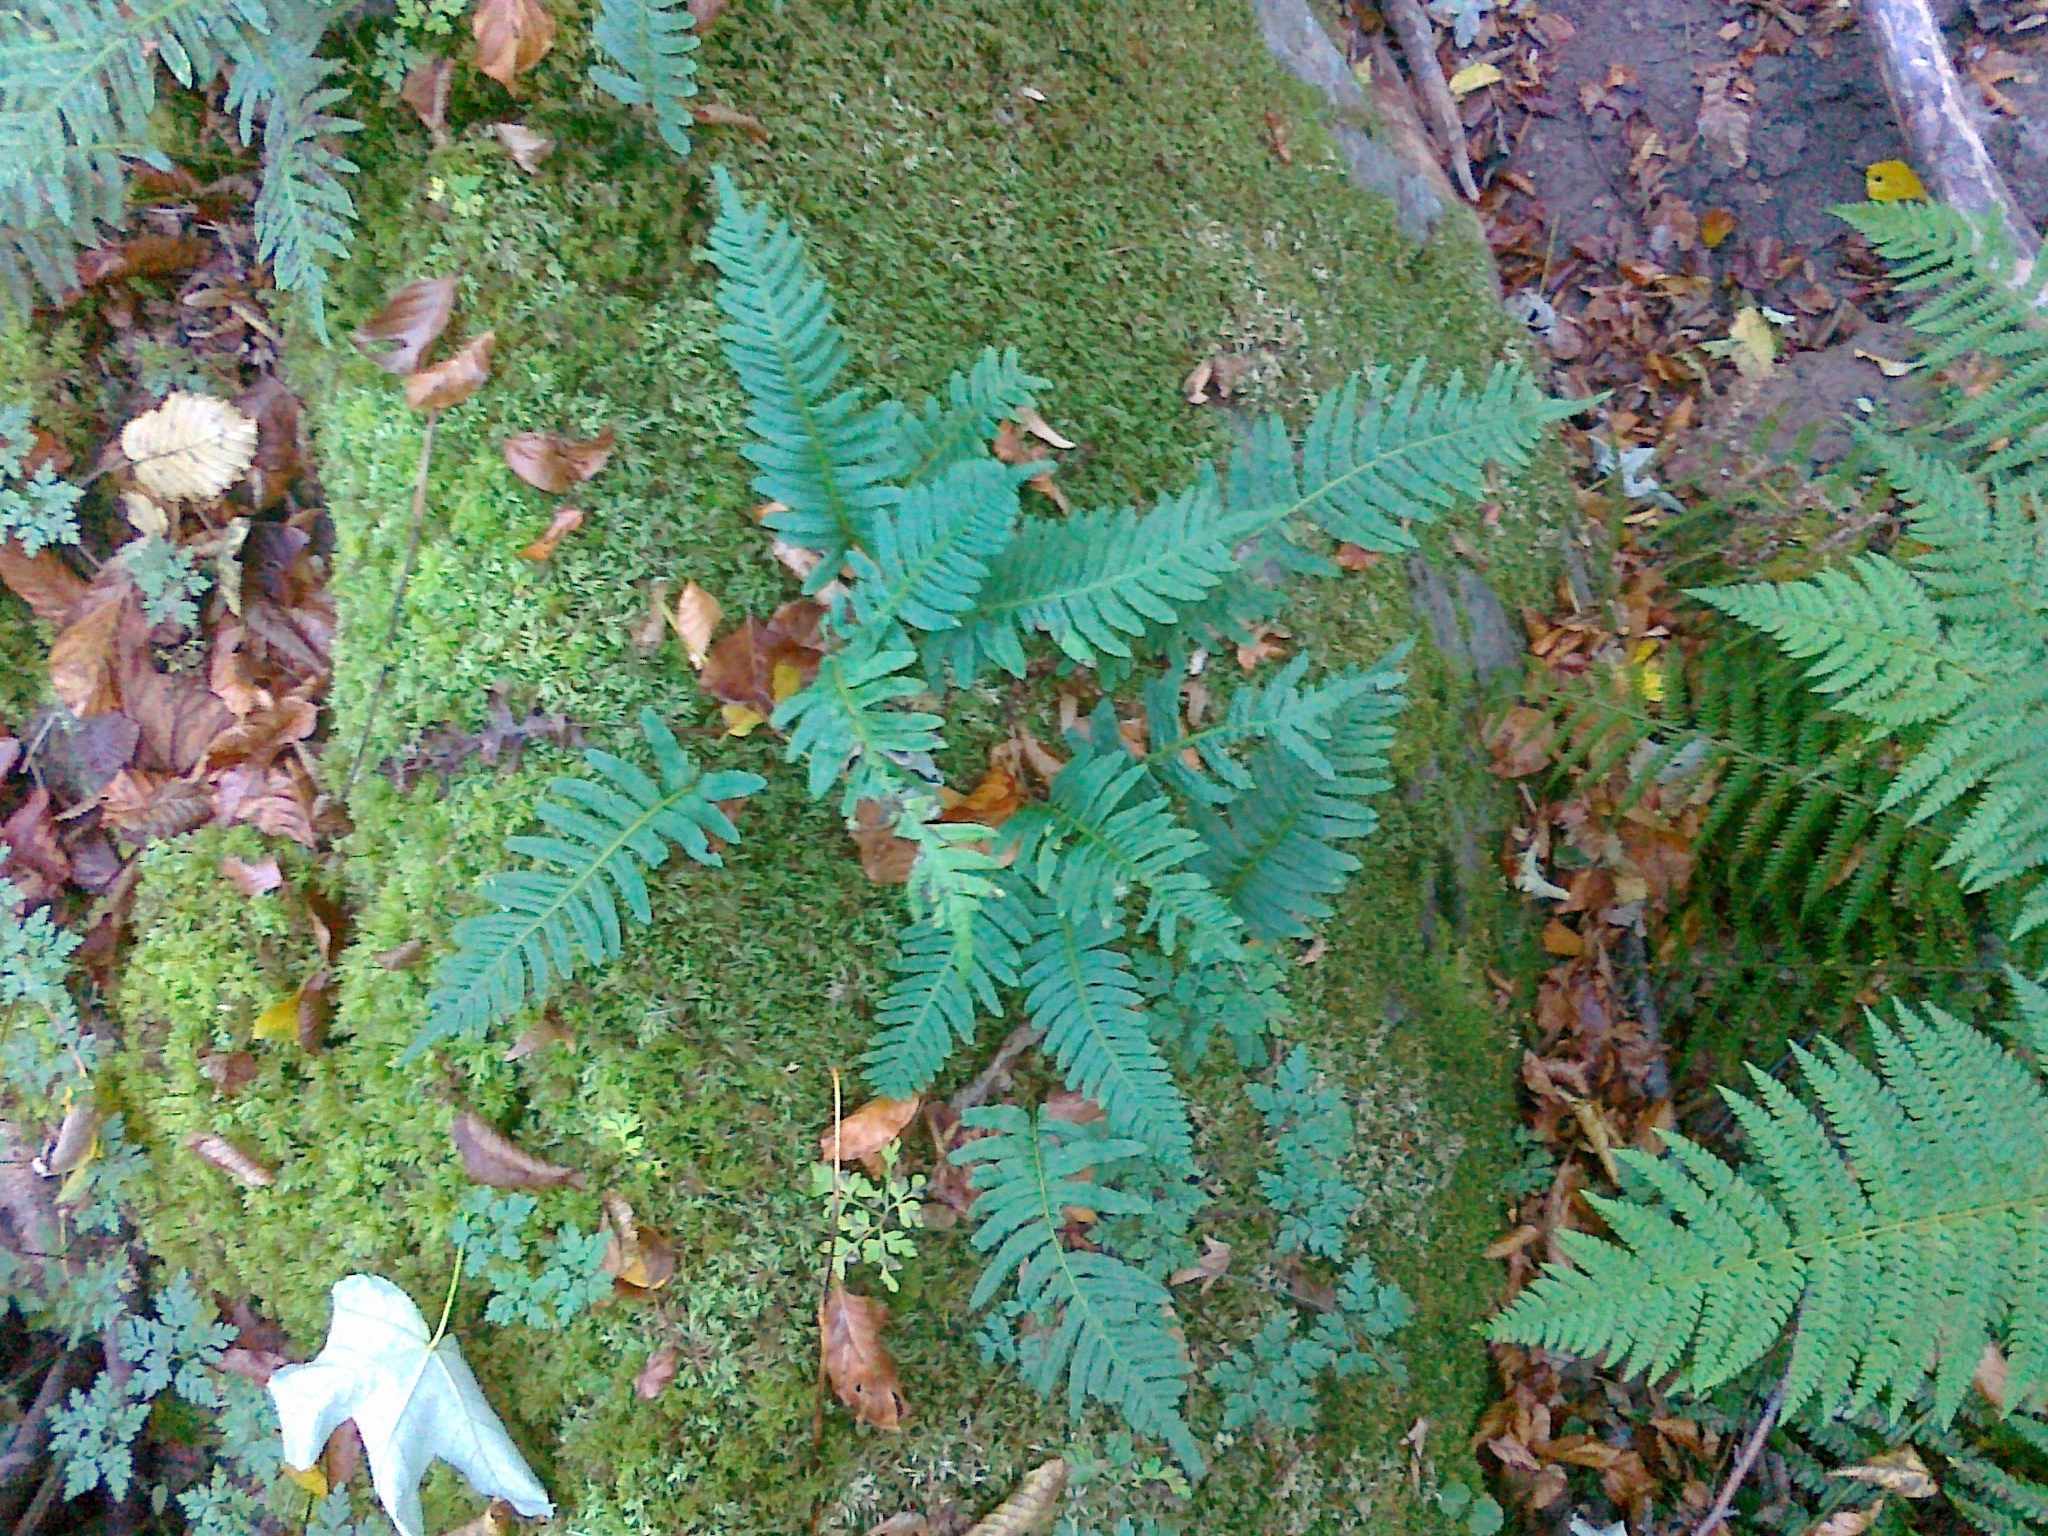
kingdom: Plantae
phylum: Tracheophyta
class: Polypodiopsida
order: Polypodiales
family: Polypodiaceae
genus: Polypodium
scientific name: Polypodium vulgare
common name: Common polypody
